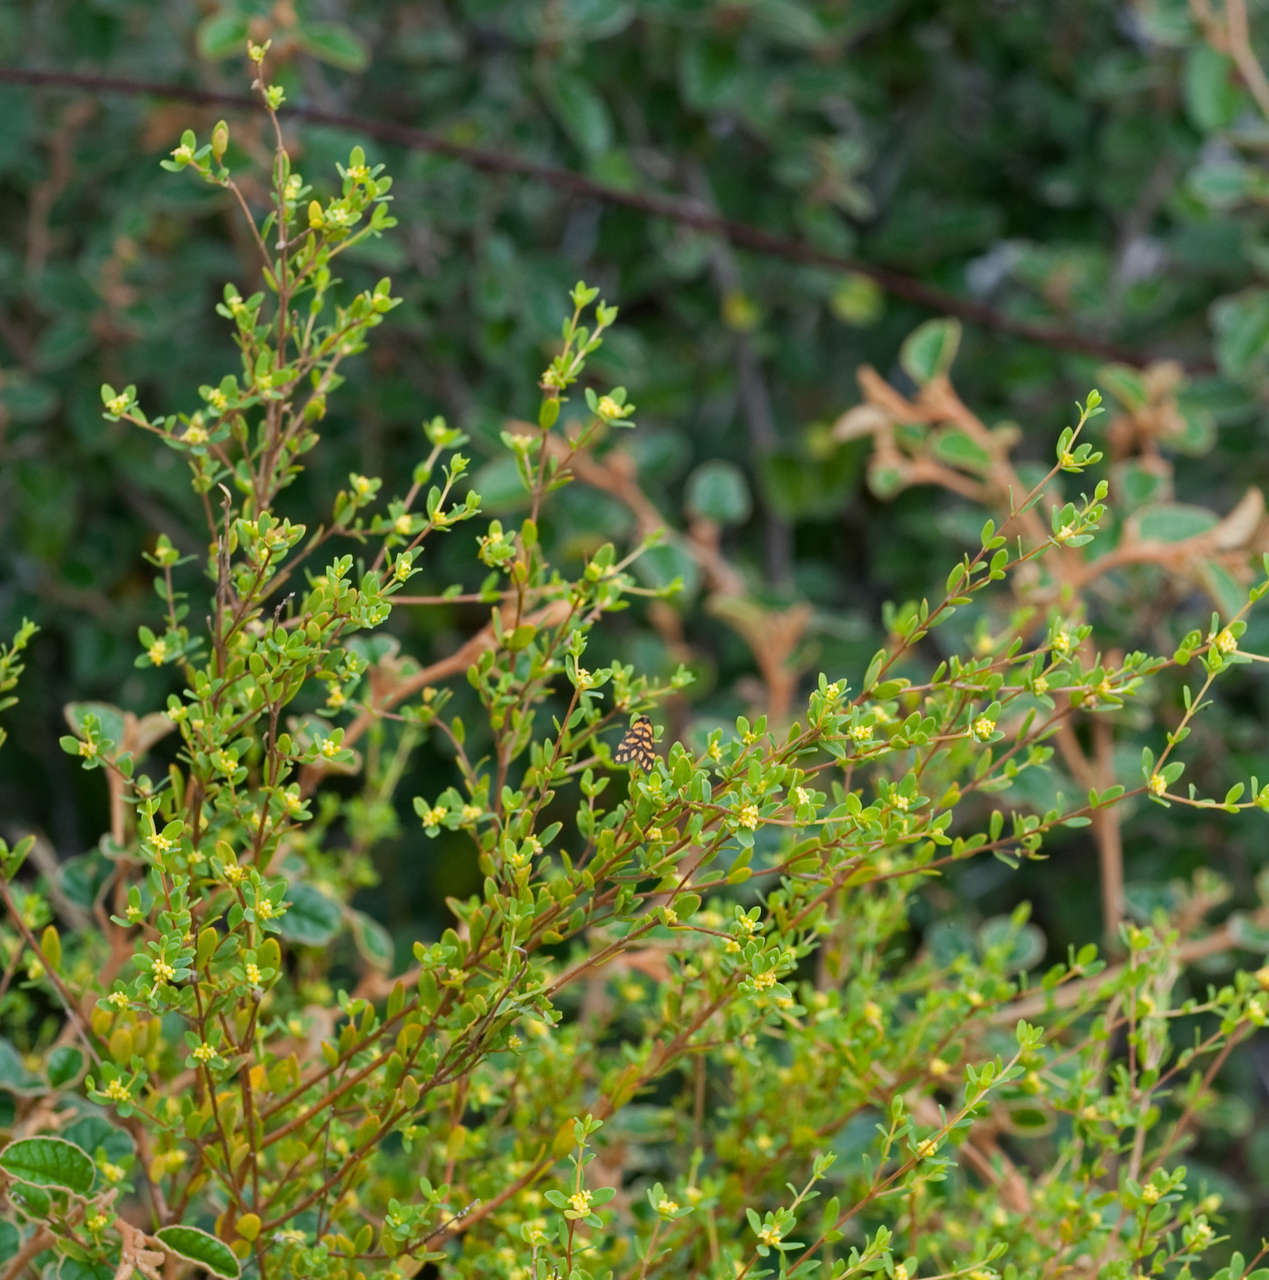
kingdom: Plantae
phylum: Tracheophyta
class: Magnoliopsida
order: Malvales
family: Thymelaeaceae
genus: Pimelea
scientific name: Pimelea serpyllifolia
